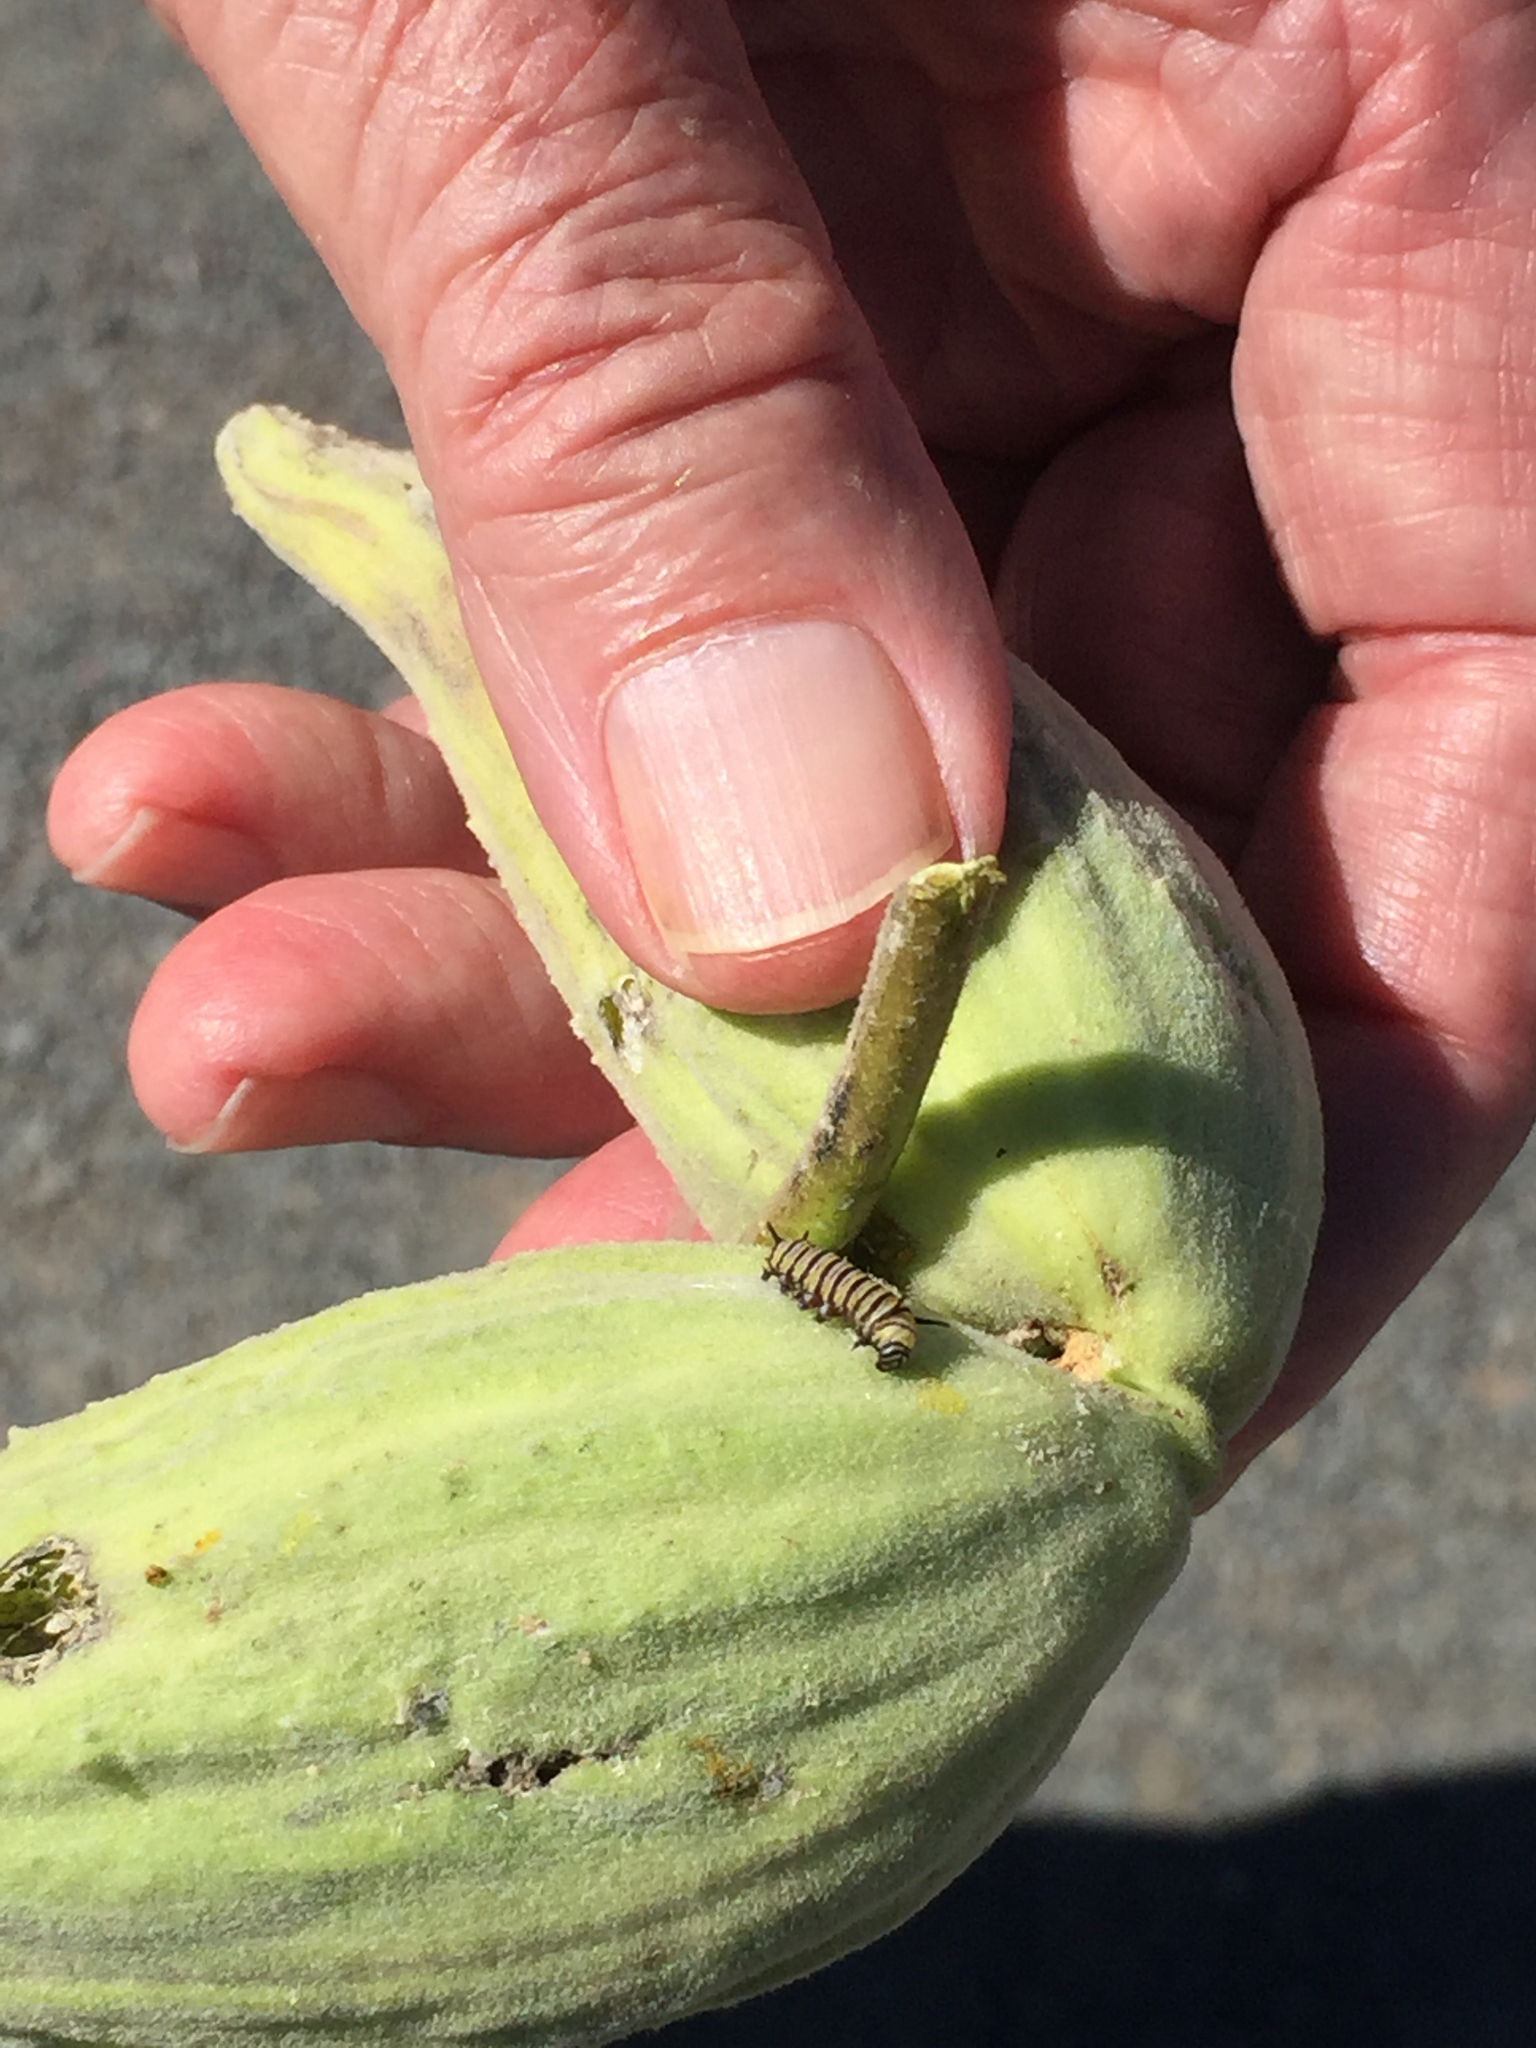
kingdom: Animalia
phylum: Arthropoda
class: Insecta
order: Lepidoptera
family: Nymphalidae
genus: Danaus
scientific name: Danaus plexippus
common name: Monarch
